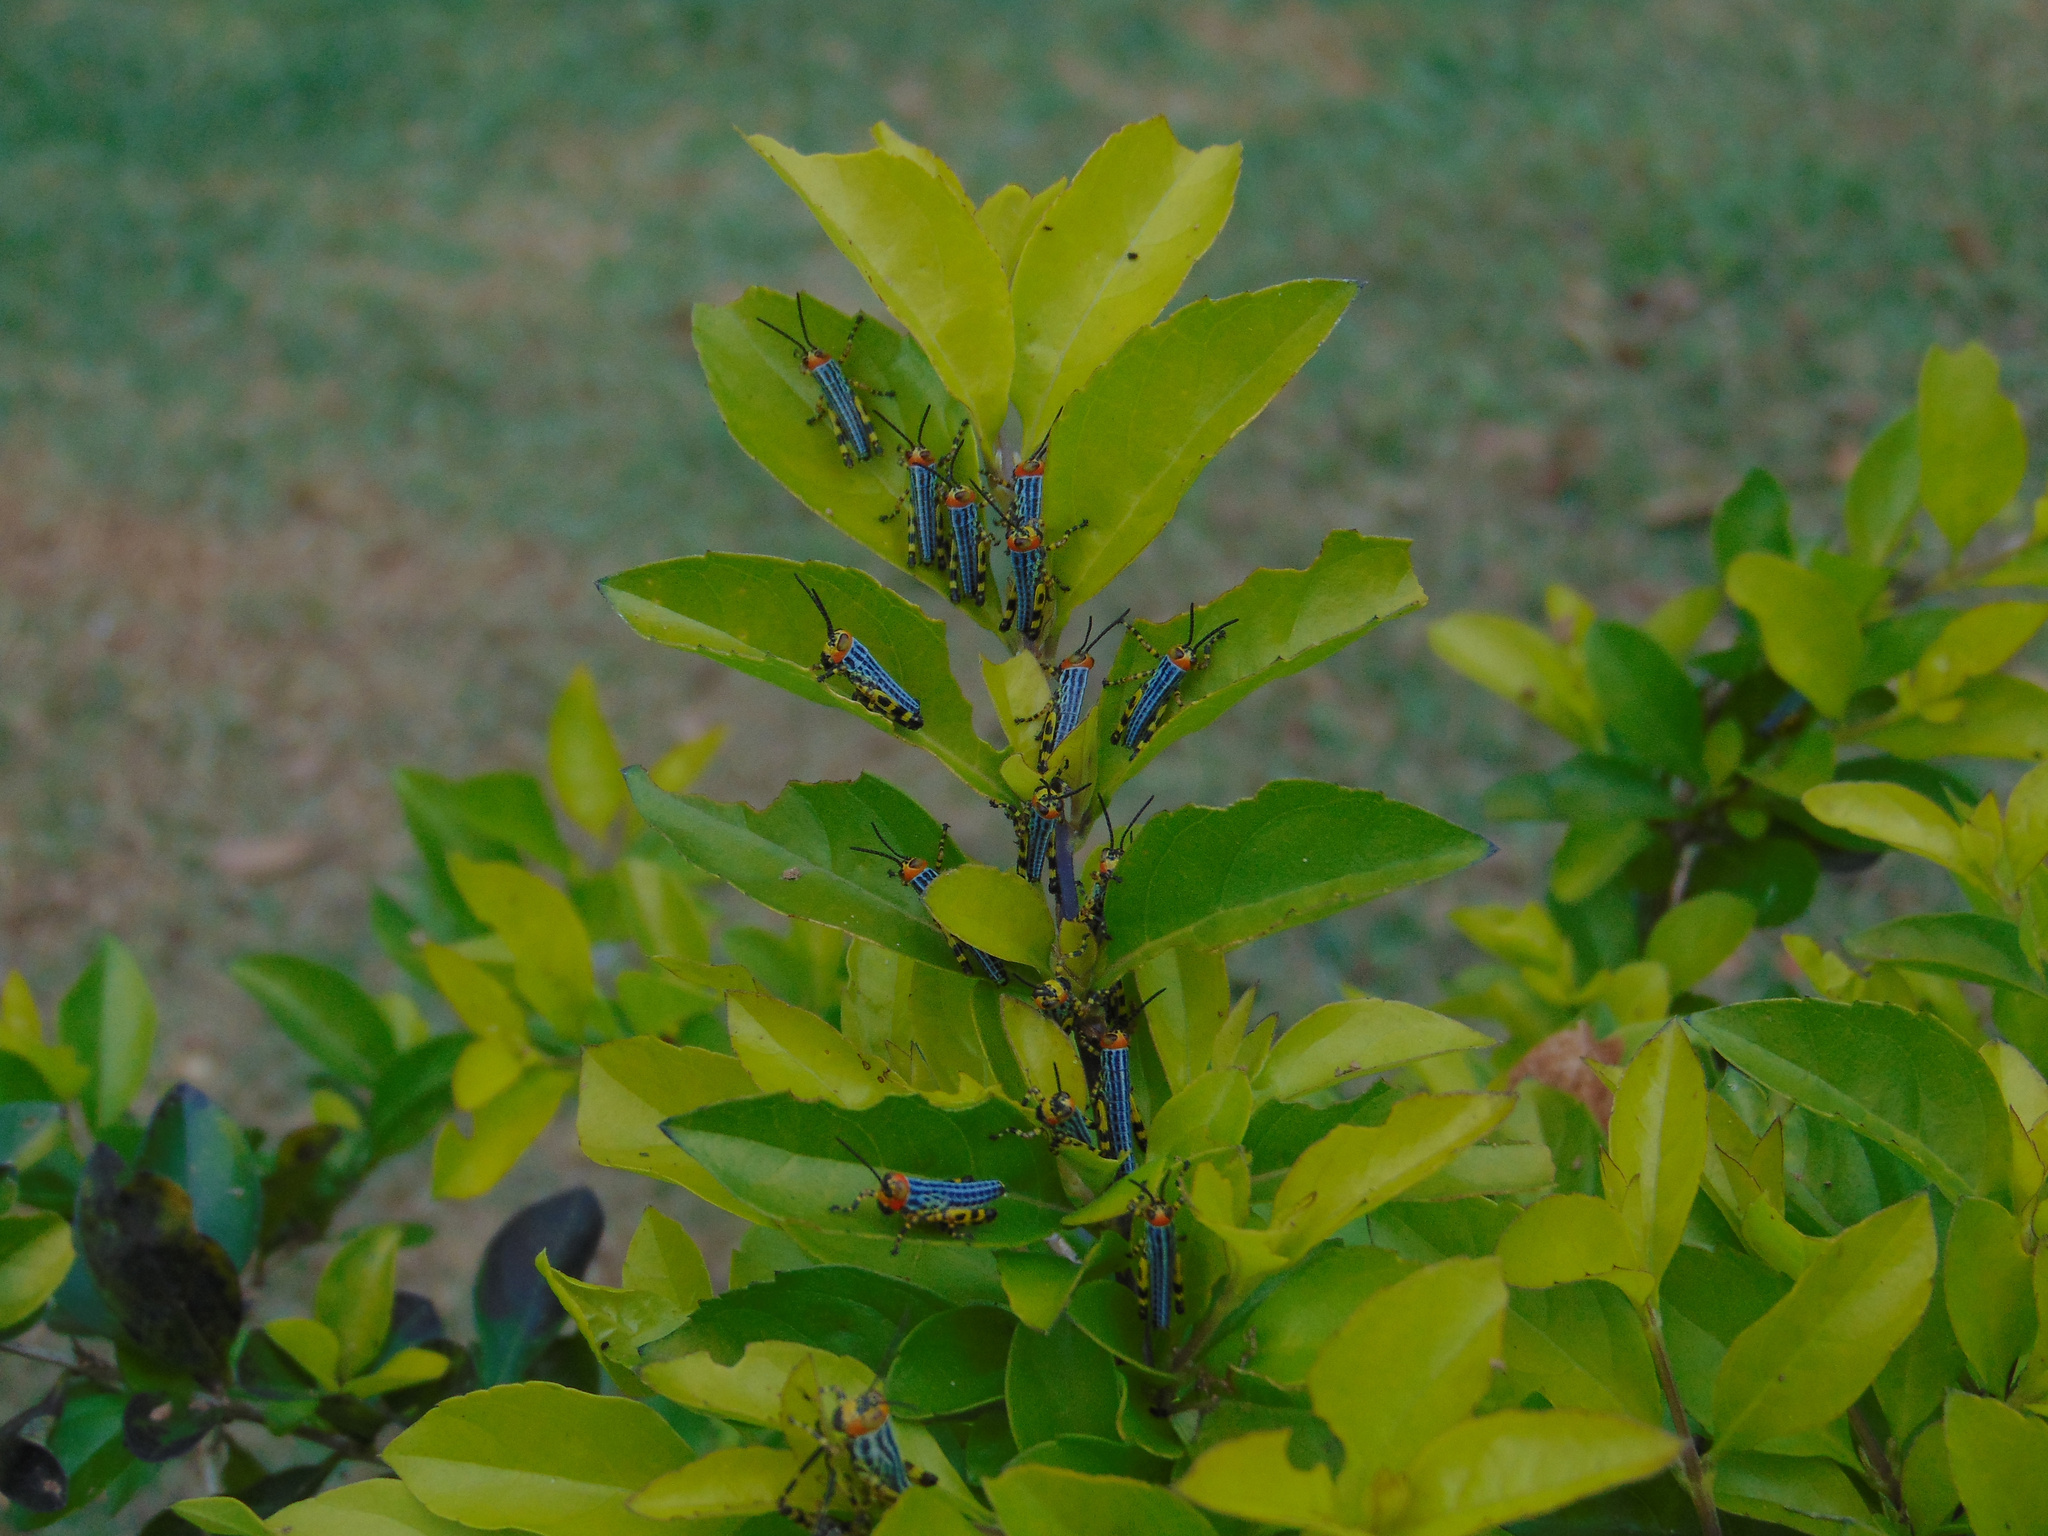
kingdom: Animalia
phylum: Arthropoda
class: Insecta
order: Orthoptera
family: Romaleidae
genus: Zoniopoda
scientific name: Zoniopoda tarsata
